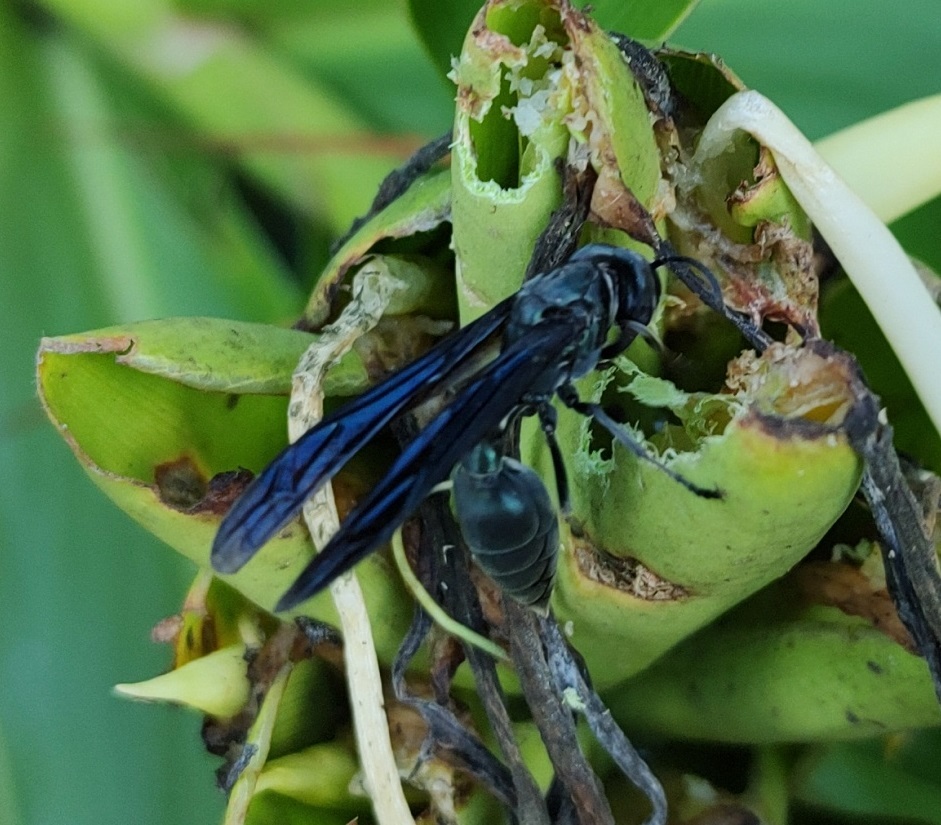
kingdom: Animalia
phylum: Arthropoda
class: Insecta
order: Hymenoptera
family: Vespidae
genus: Synoeca
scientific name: Synoeca cyanea
